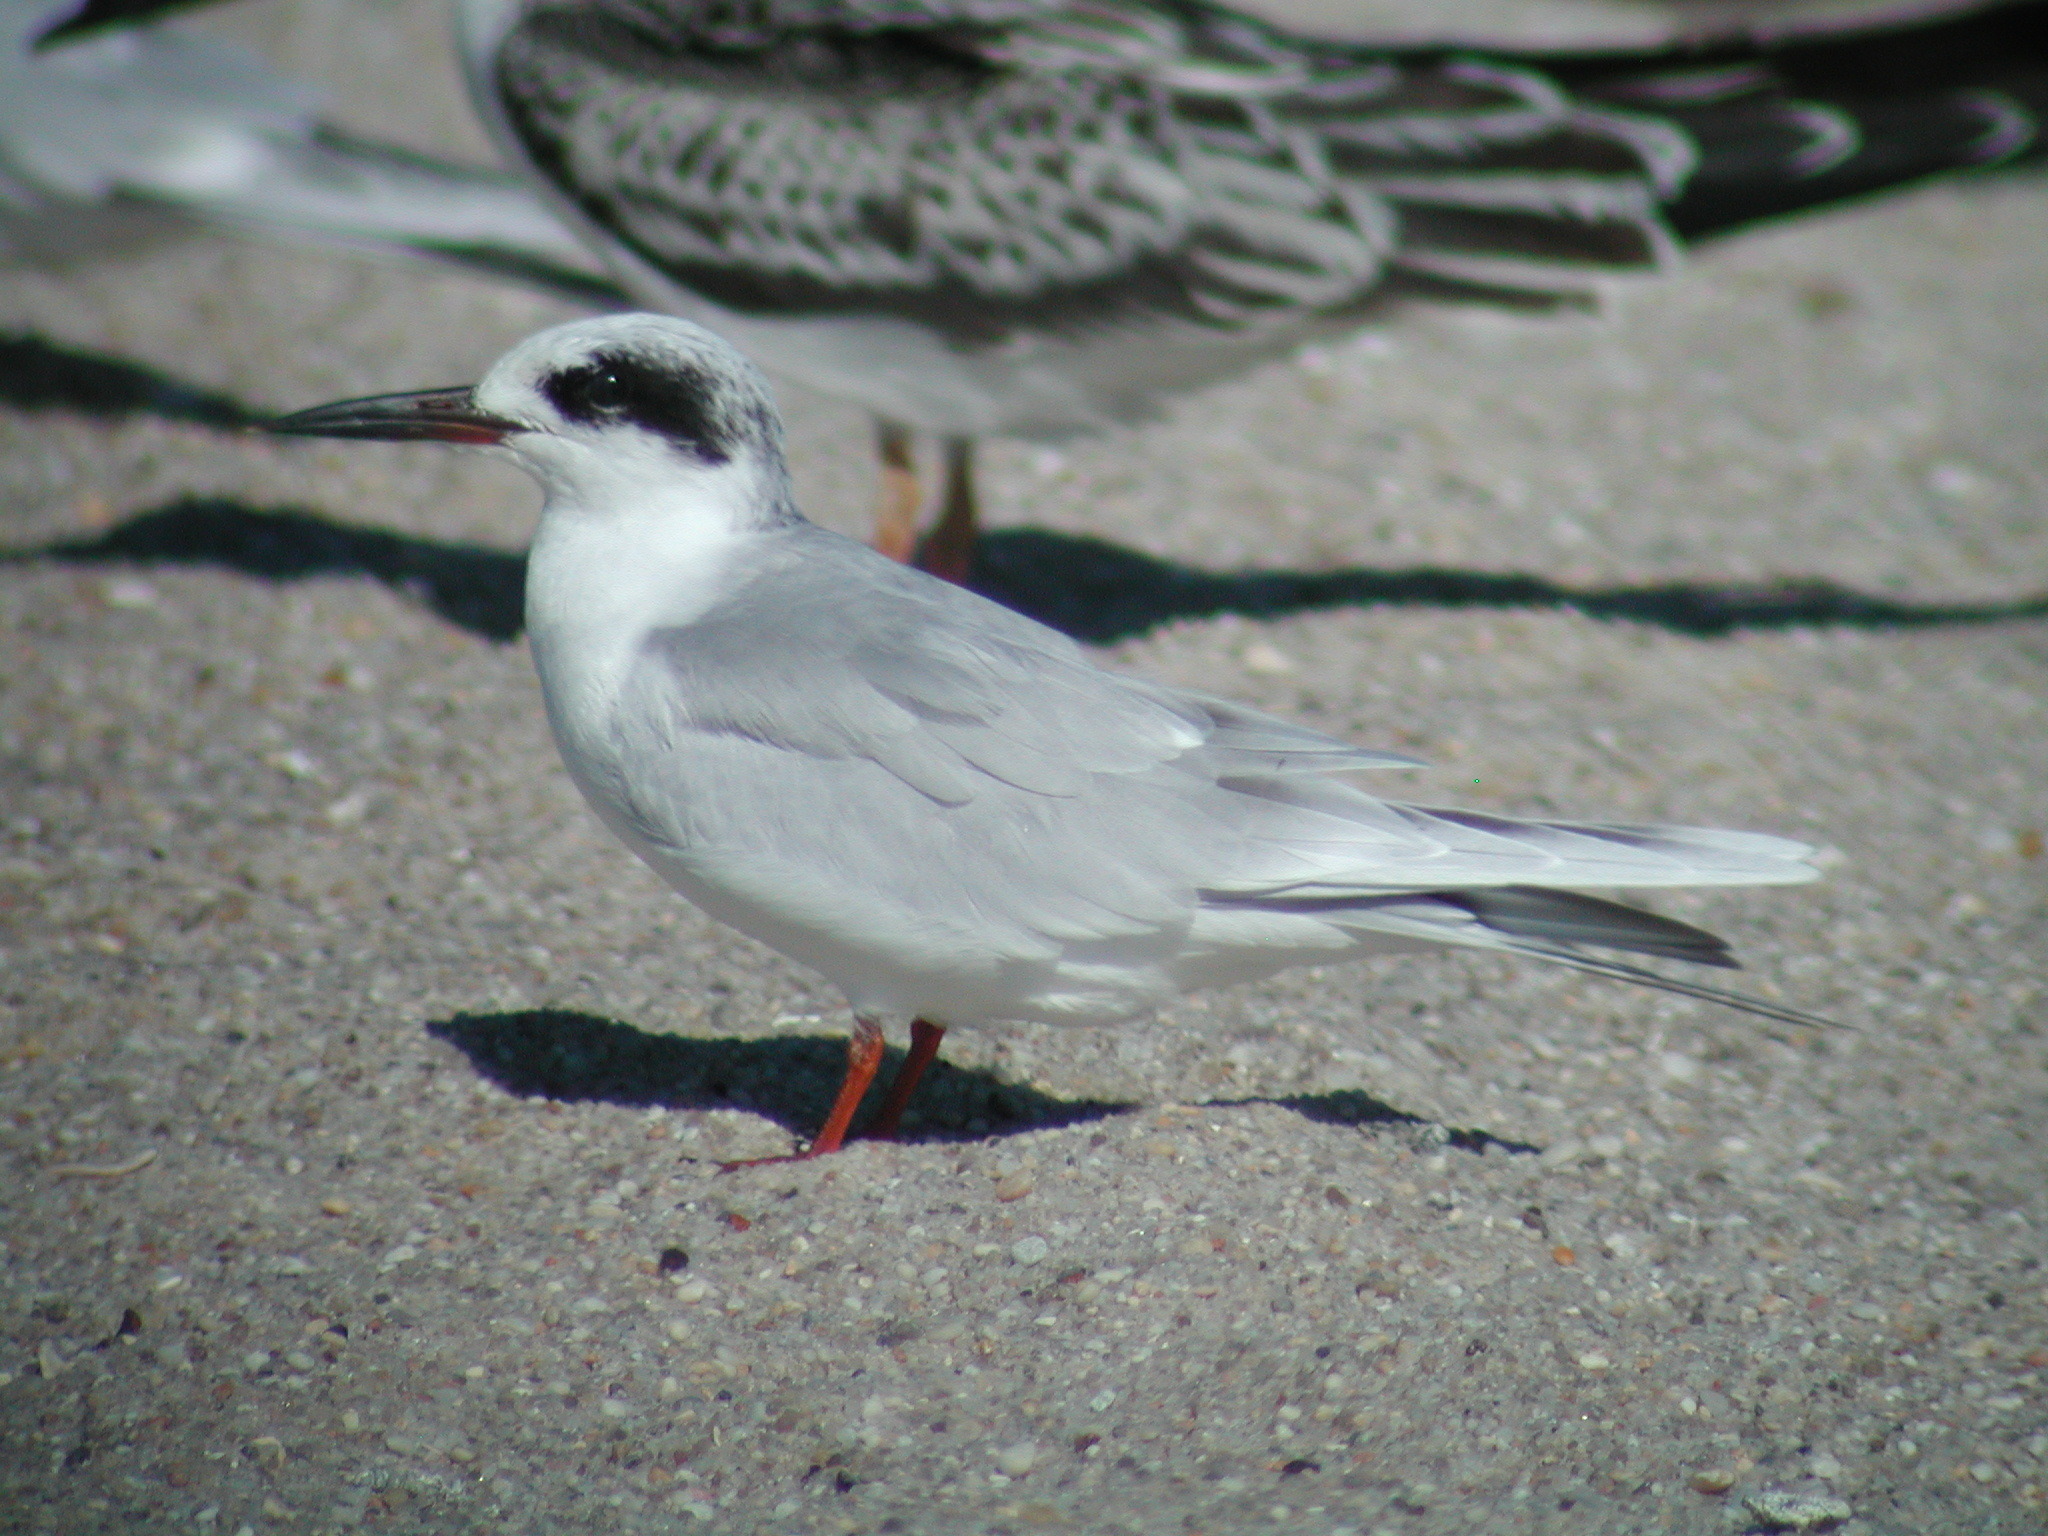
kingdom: Animalia
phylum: Chordata
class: Aves
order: Charadriiformes
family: Laridae
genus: Sterna
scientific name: Sterna forsteri
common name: Forster's tern
